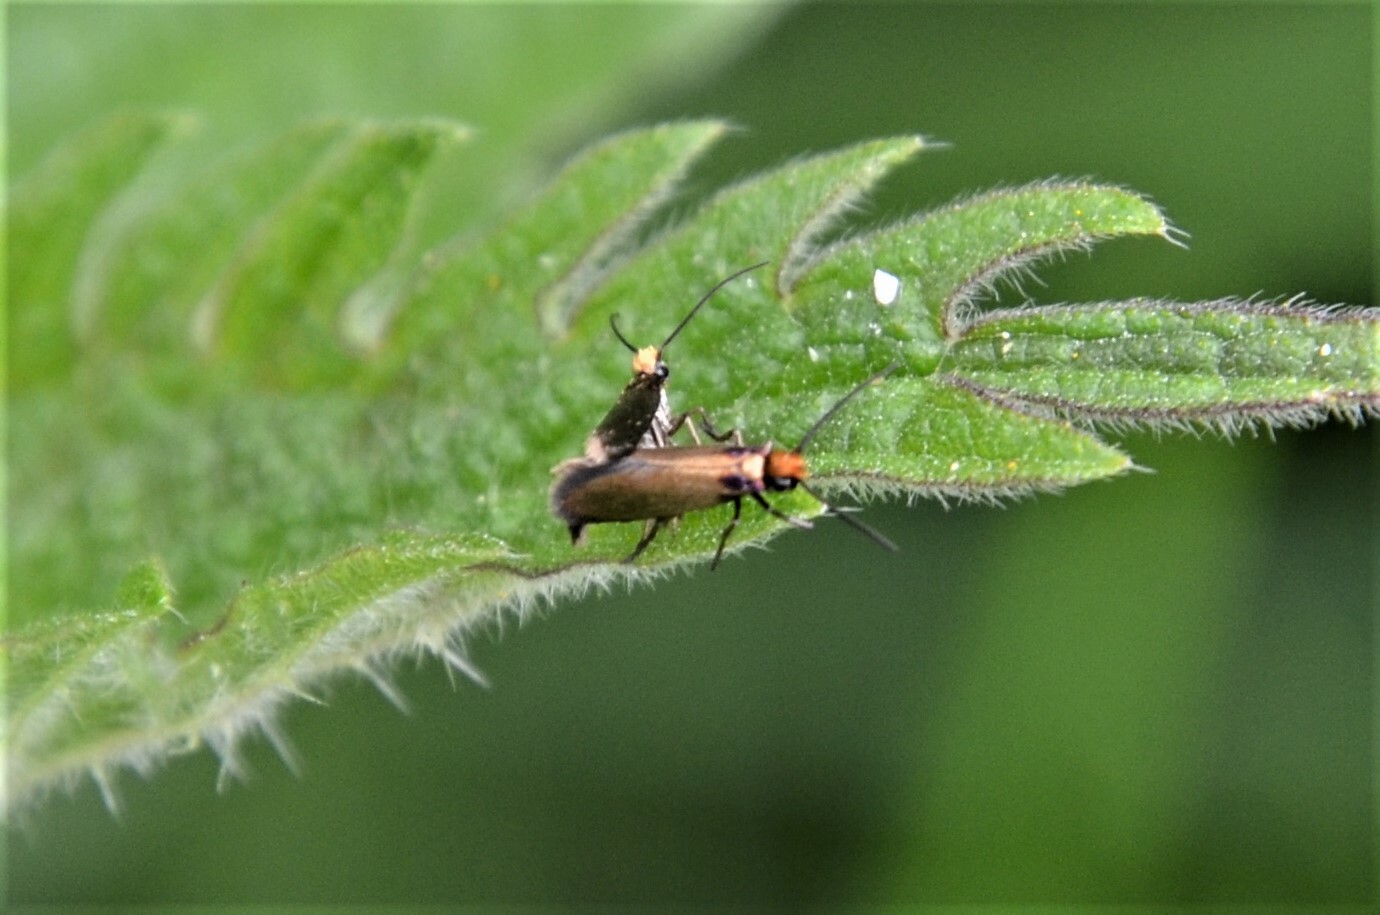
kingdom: Animalia
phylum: Arthropoda
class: Insecta
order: Lepidoptera
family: Micropterigidae
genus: Micropterix
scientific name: Micropterix calthella
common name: Plain gold
